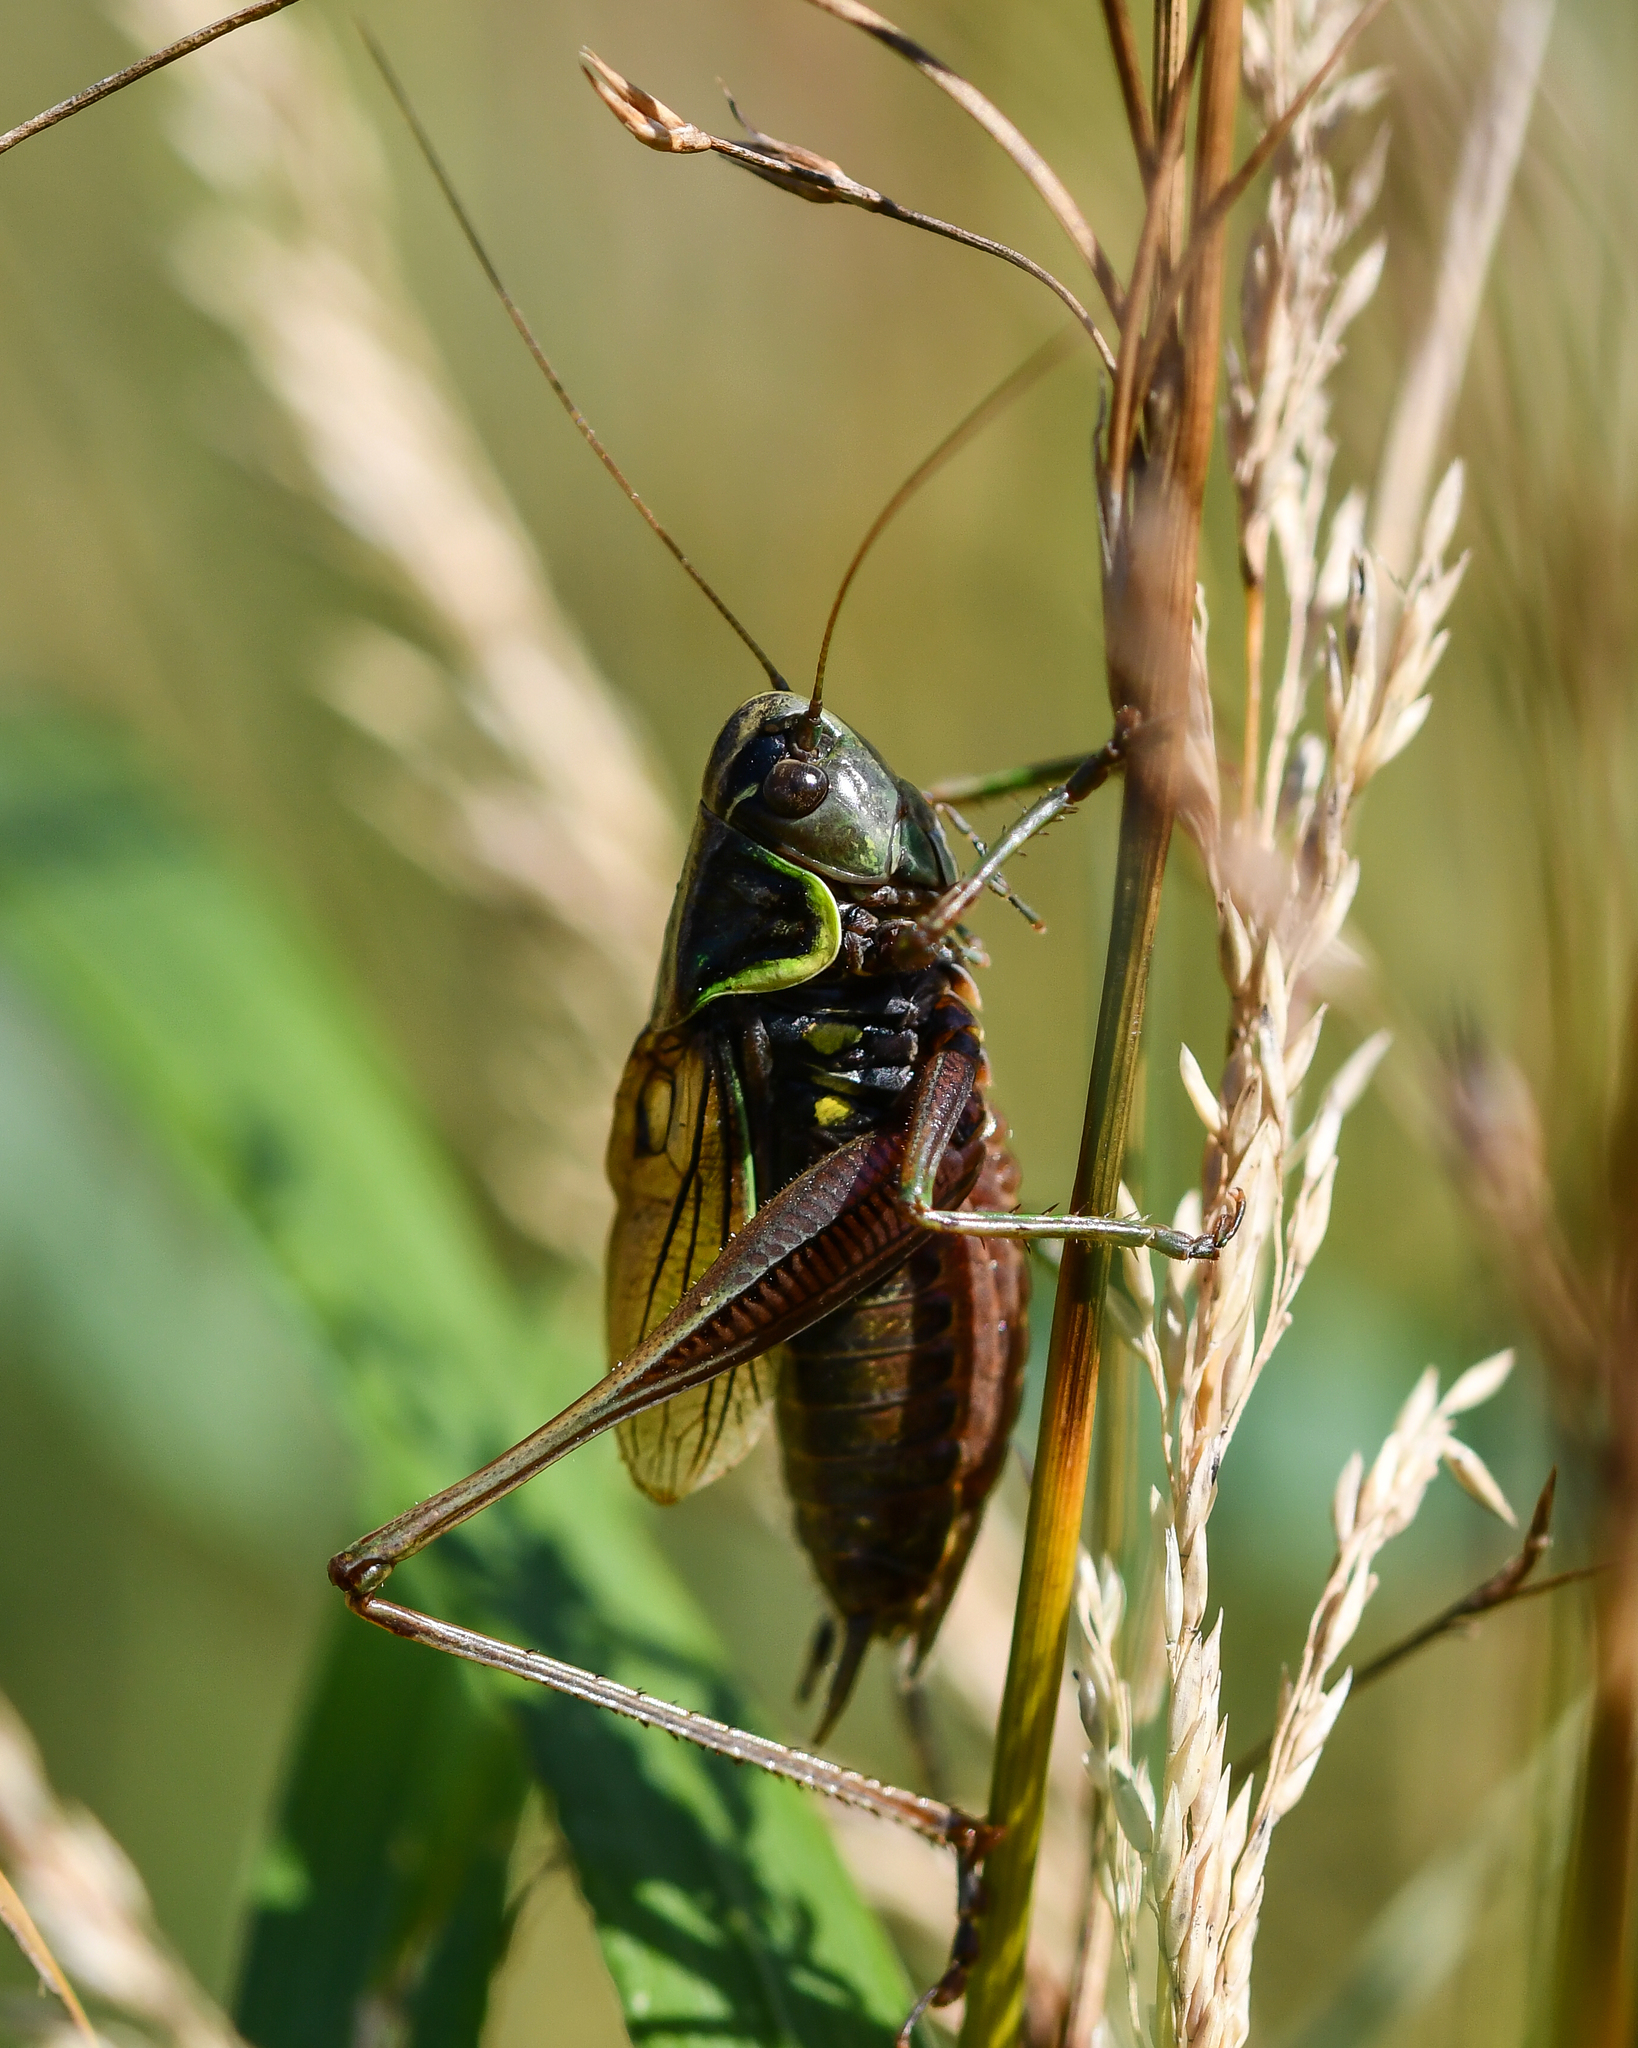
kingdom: Animalia
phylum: Arthropoda
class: Insecta
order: Orthoptera
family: Tettigoniidae
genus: Roeseliana
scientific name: Roeseliana roeselii
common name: Roesel's bush cricket
